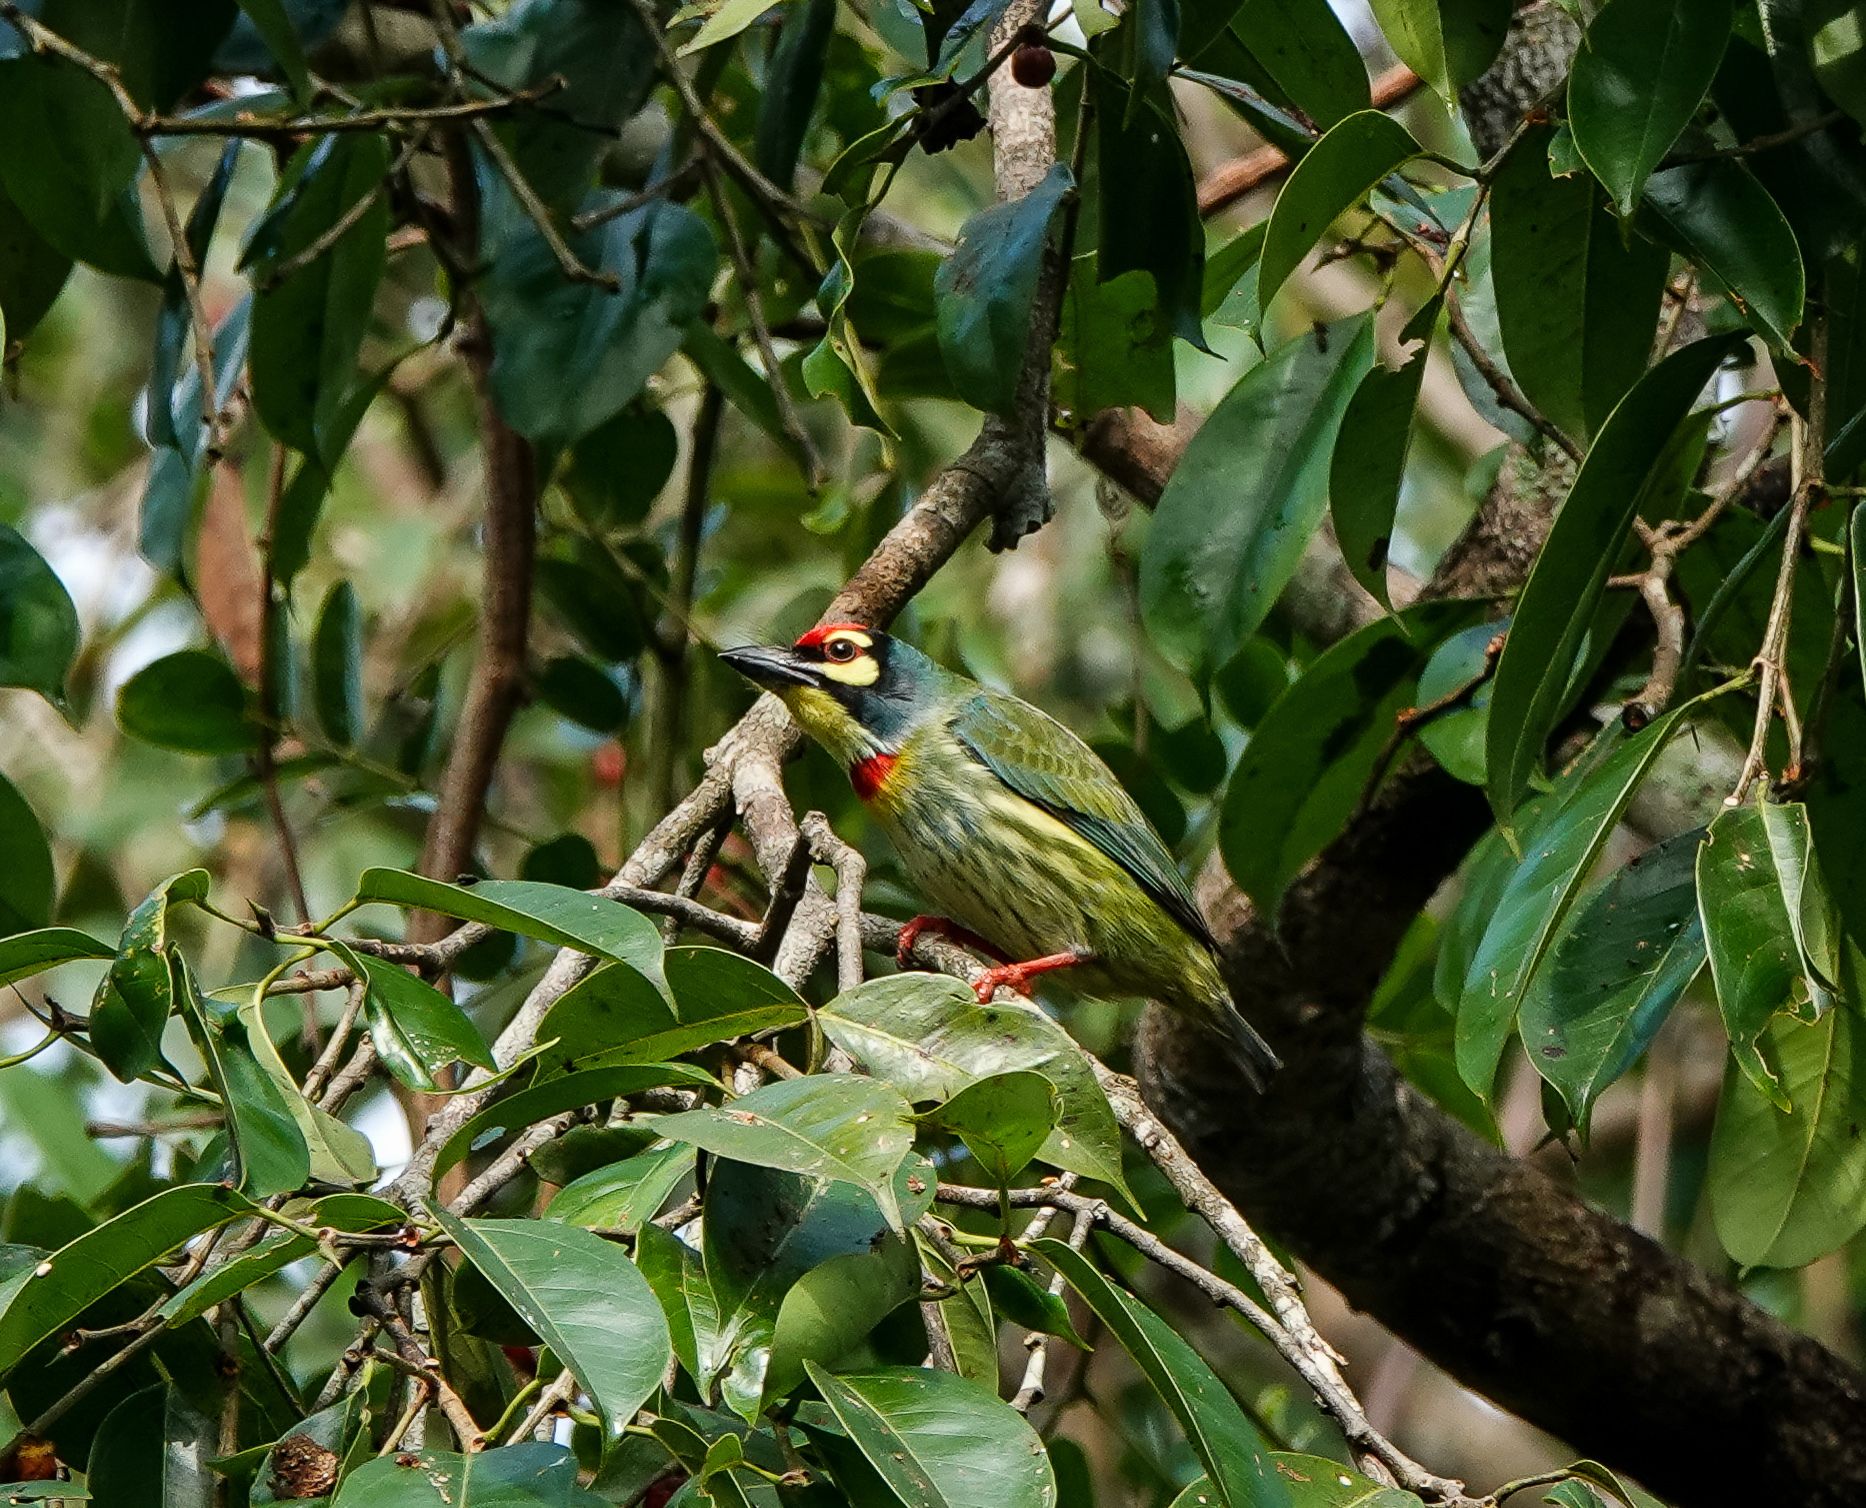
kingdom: Animalia
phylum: Chordata
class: Aves
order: Piciformes
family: Megalaimidae
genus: Psilopogon
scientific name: Psilopogon haemacephalus
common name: Coppersmith barbet
